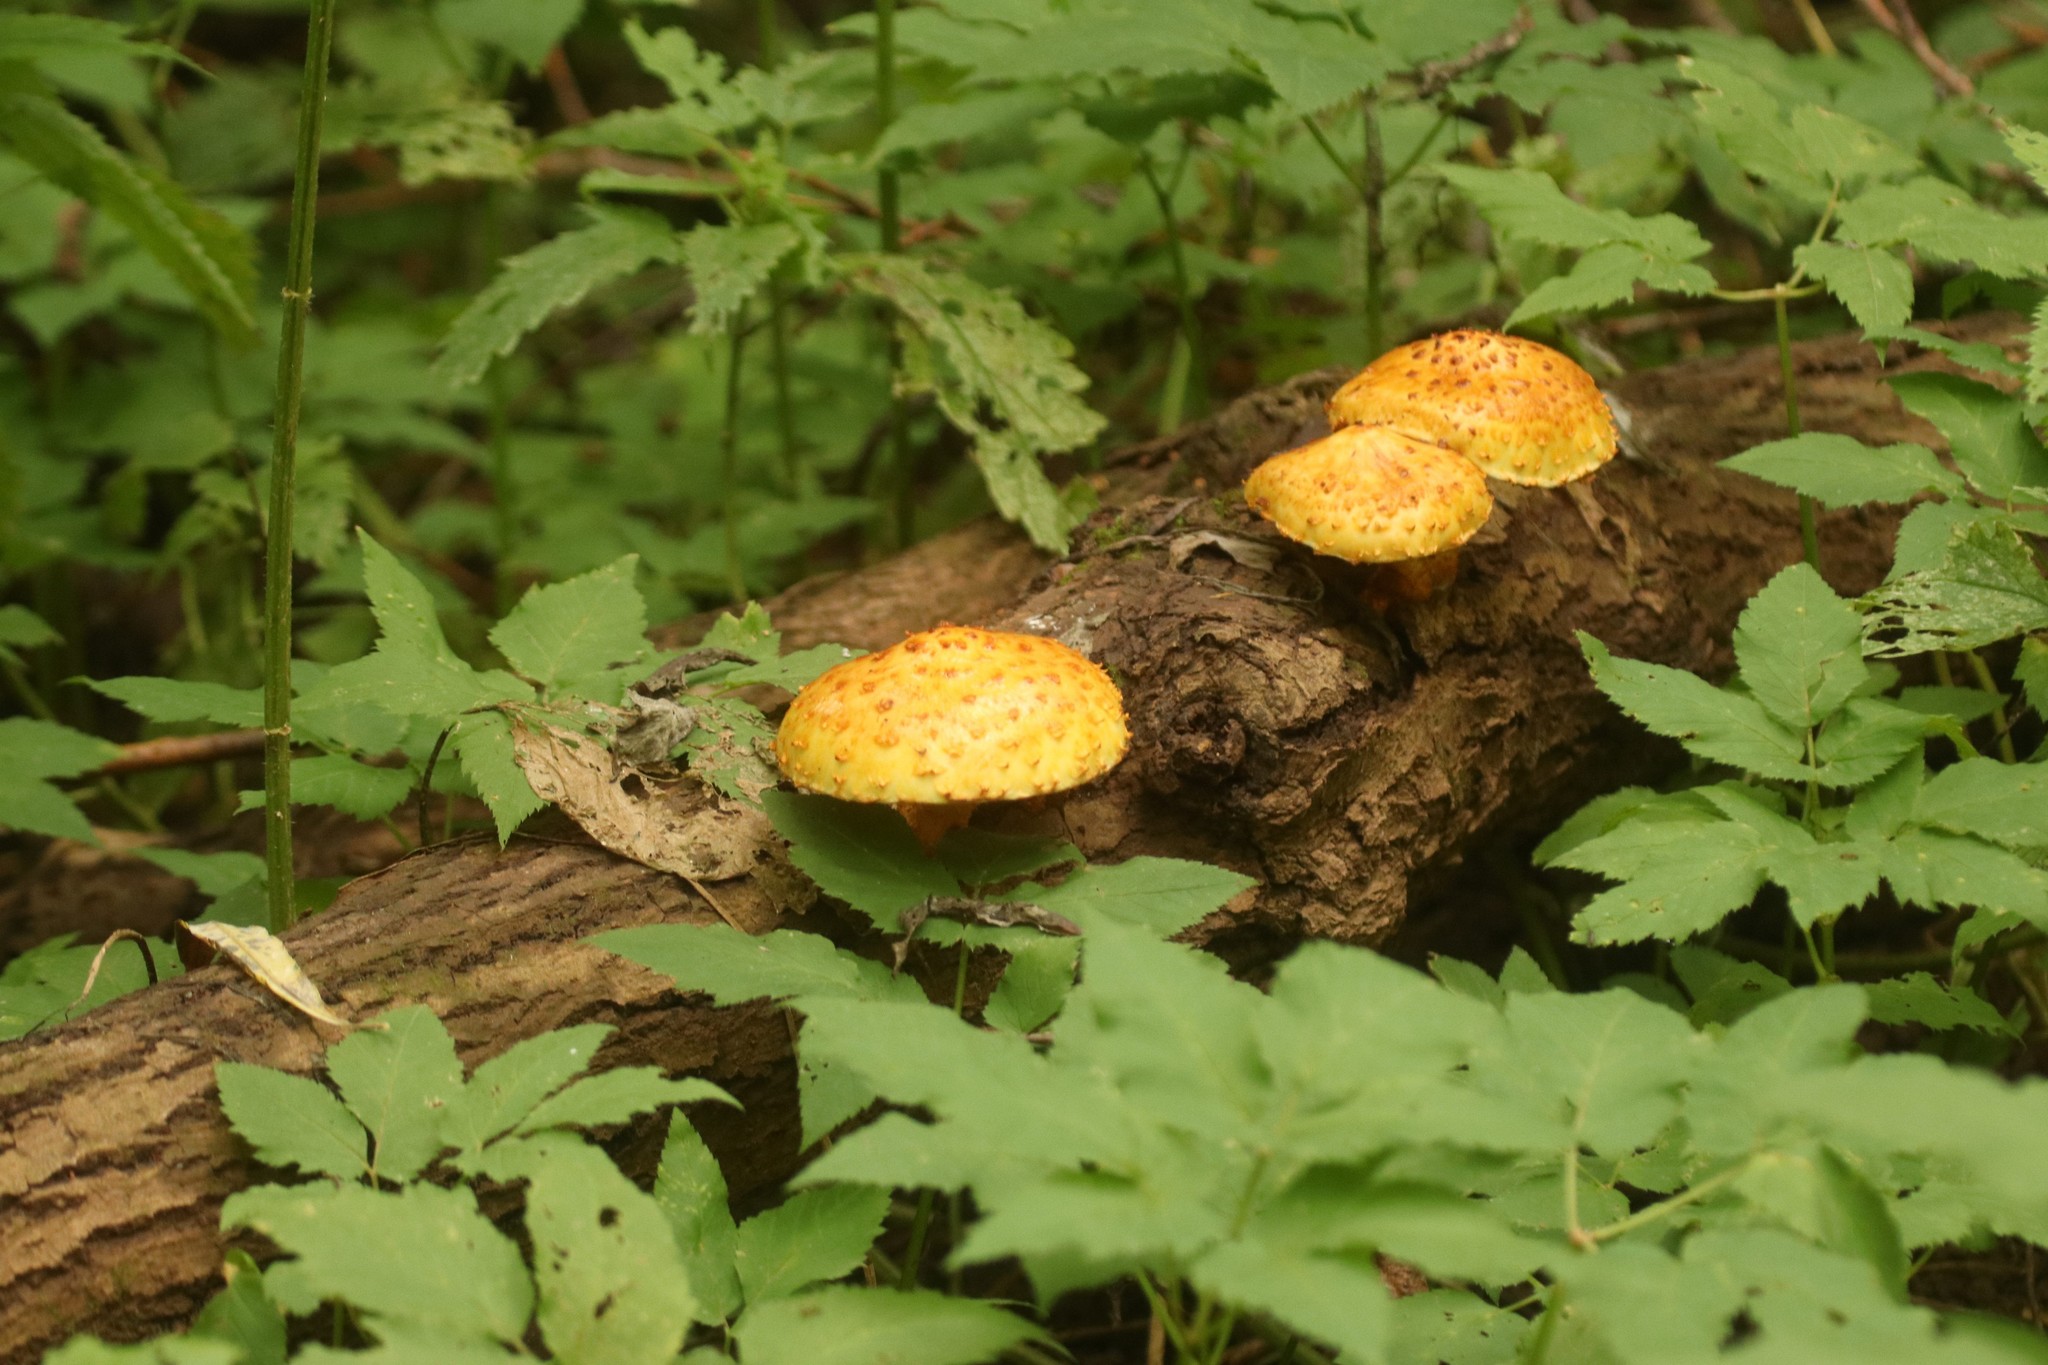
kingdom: Fungi
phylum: Basidiomycota
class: Agaricomycetes
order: Agaricales
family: Strophariaceae
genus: Pholiota
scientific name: Pholiota aurivella
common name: Golden scalycap
